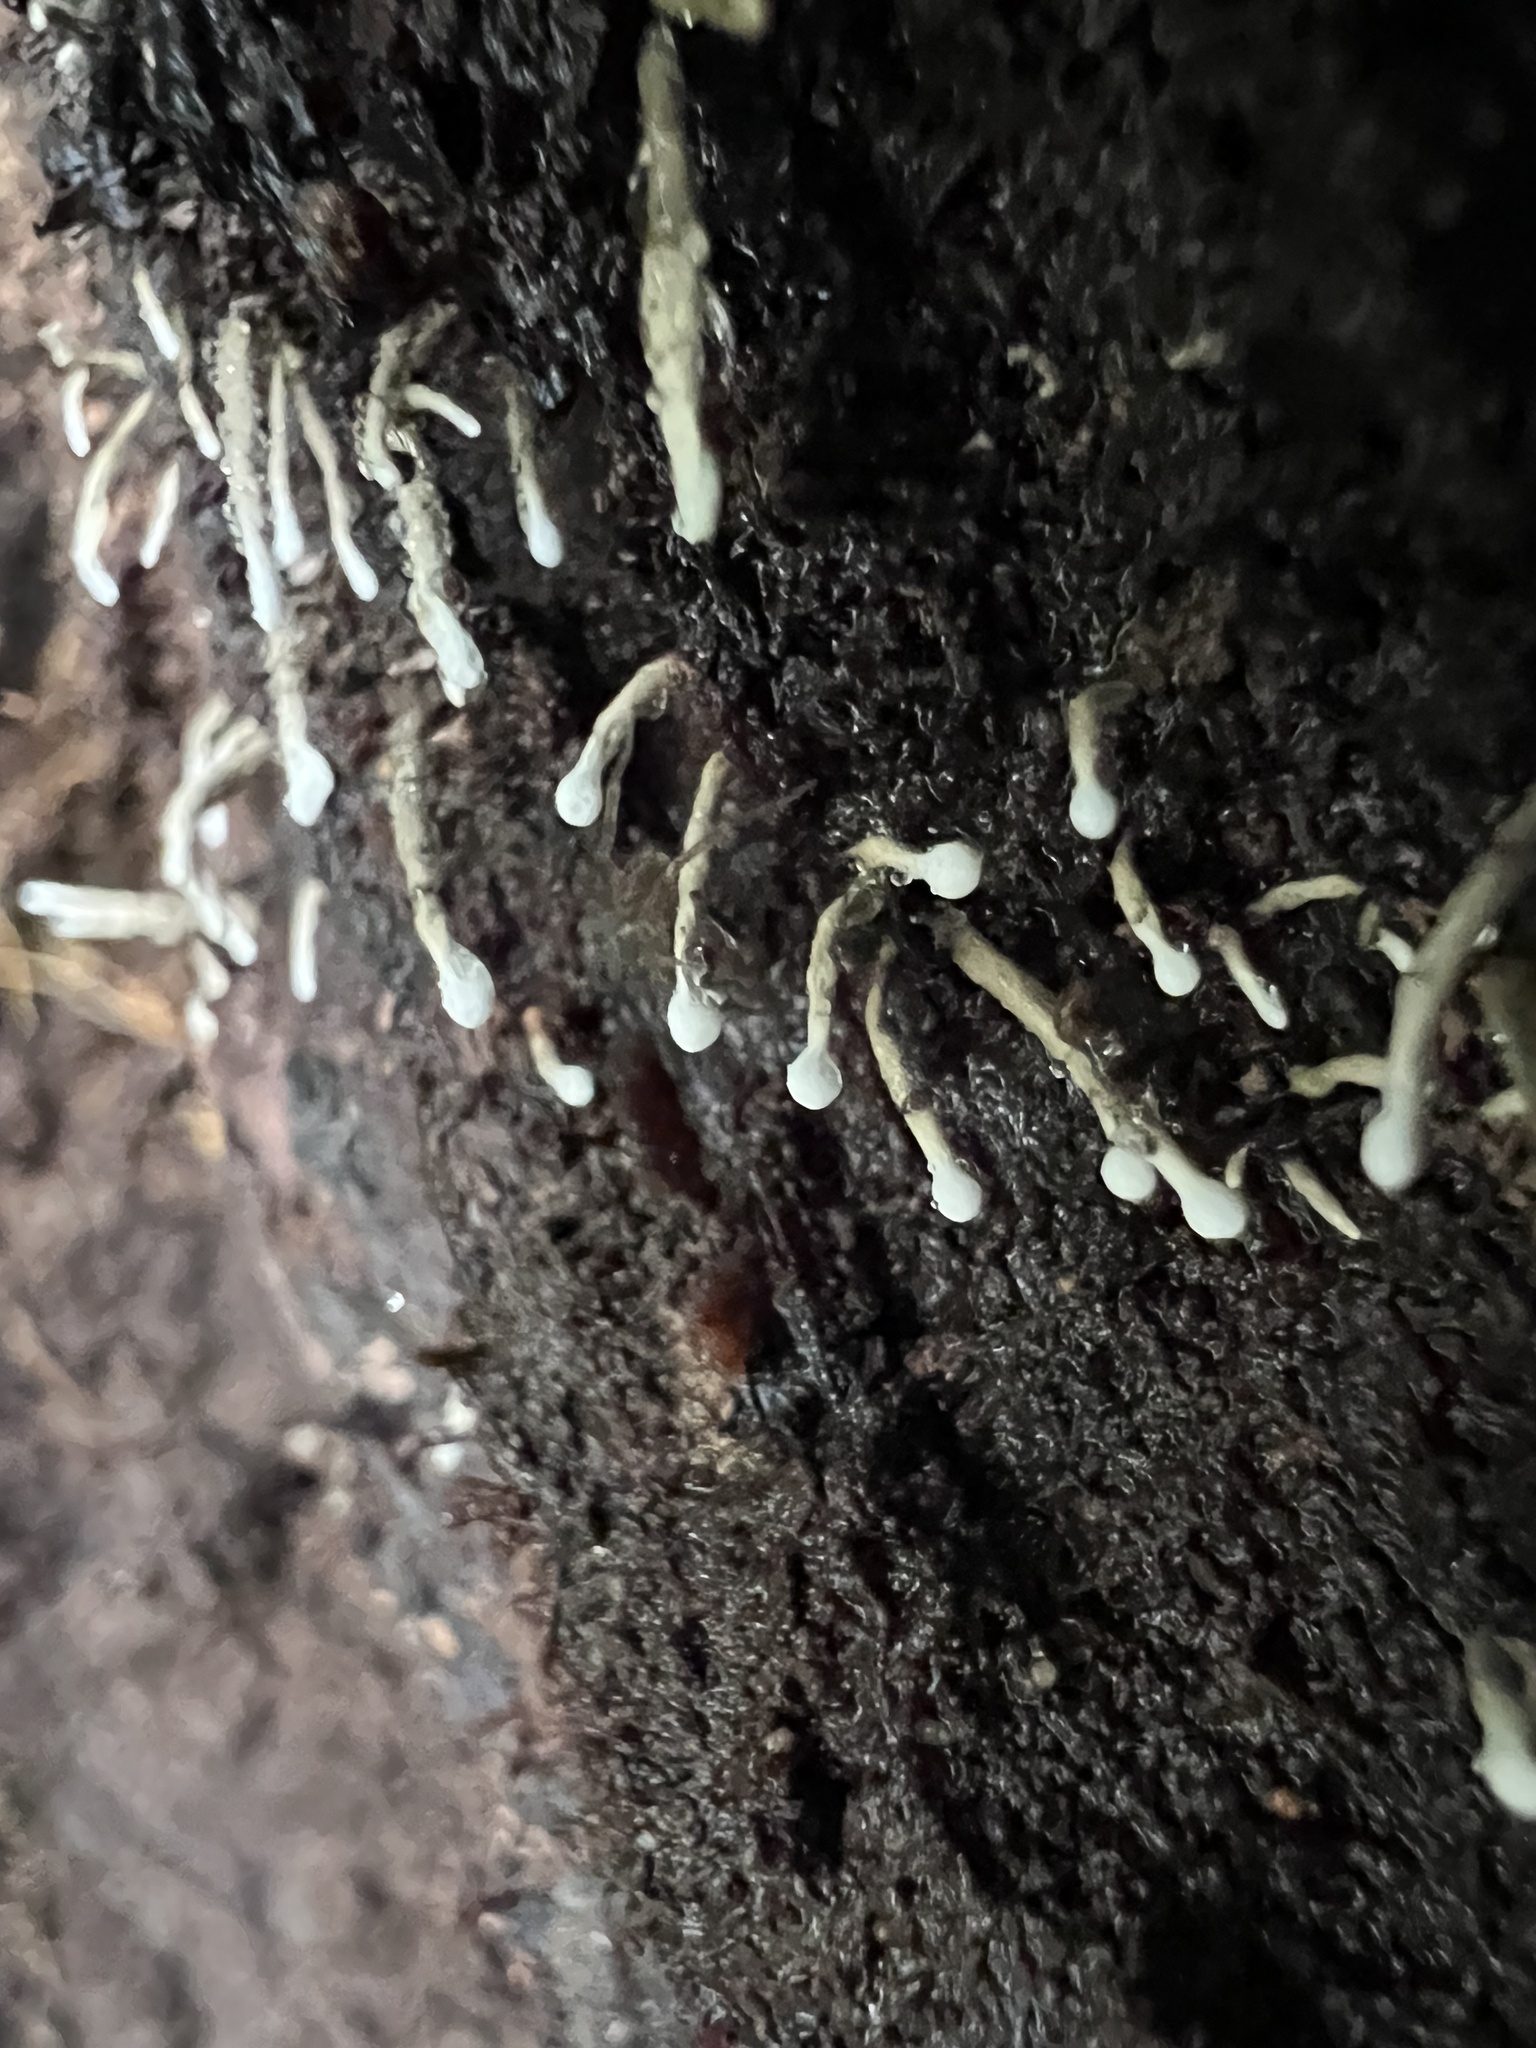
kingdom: Fungi
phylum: Basidiomycota
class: Atractiellomycetes
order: Atractiellales
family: Phleogenaceae
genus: Phleogena
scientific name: Phleogena faginea
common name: Fenugreek stalkball
